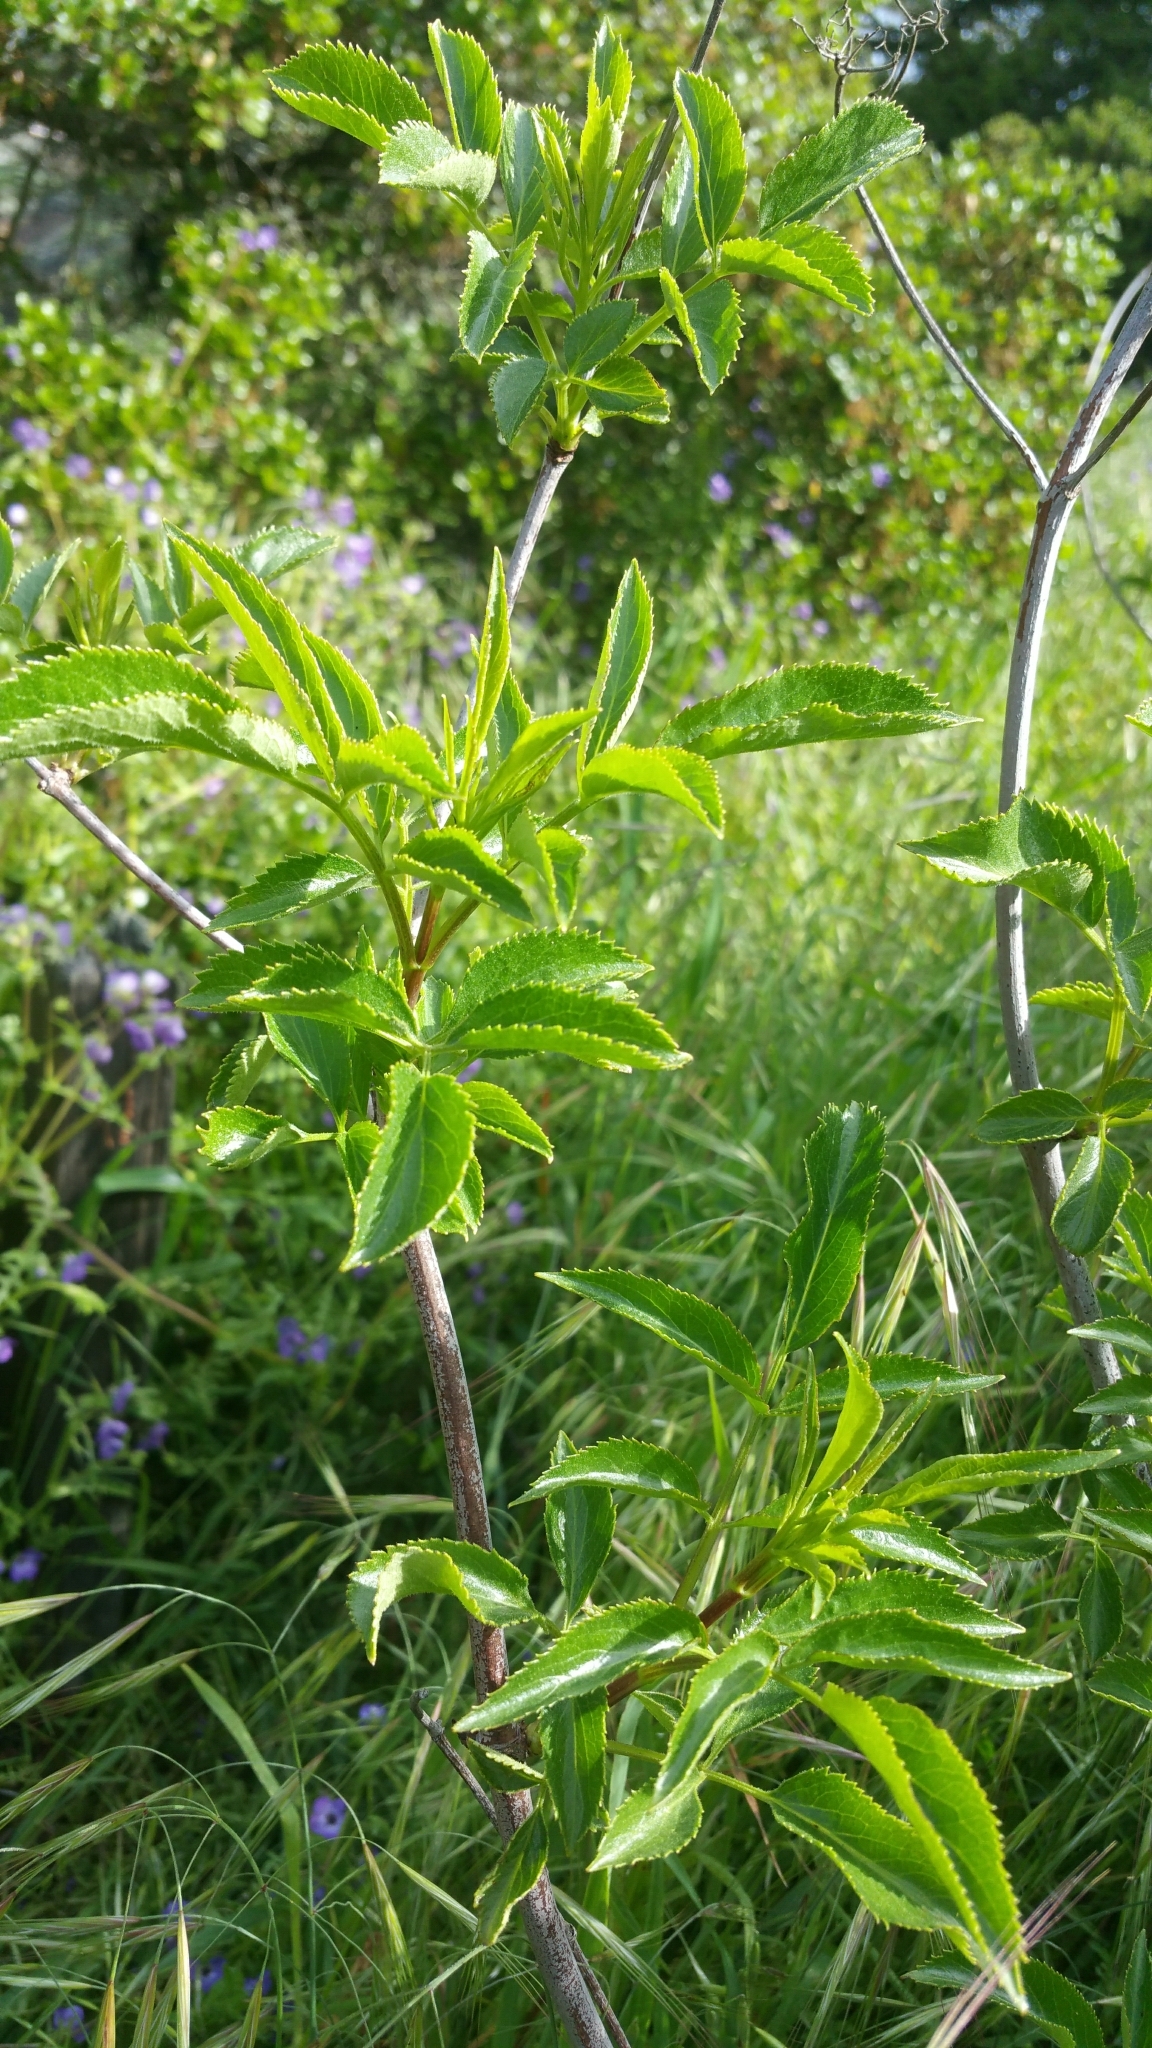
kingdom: Plantae
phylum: Tracheophyta
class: Magnoliopsida
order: Dipsacales
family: Viburnaceae
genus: Sambucus
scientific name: Sambucus cerulea
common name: Blue elder
